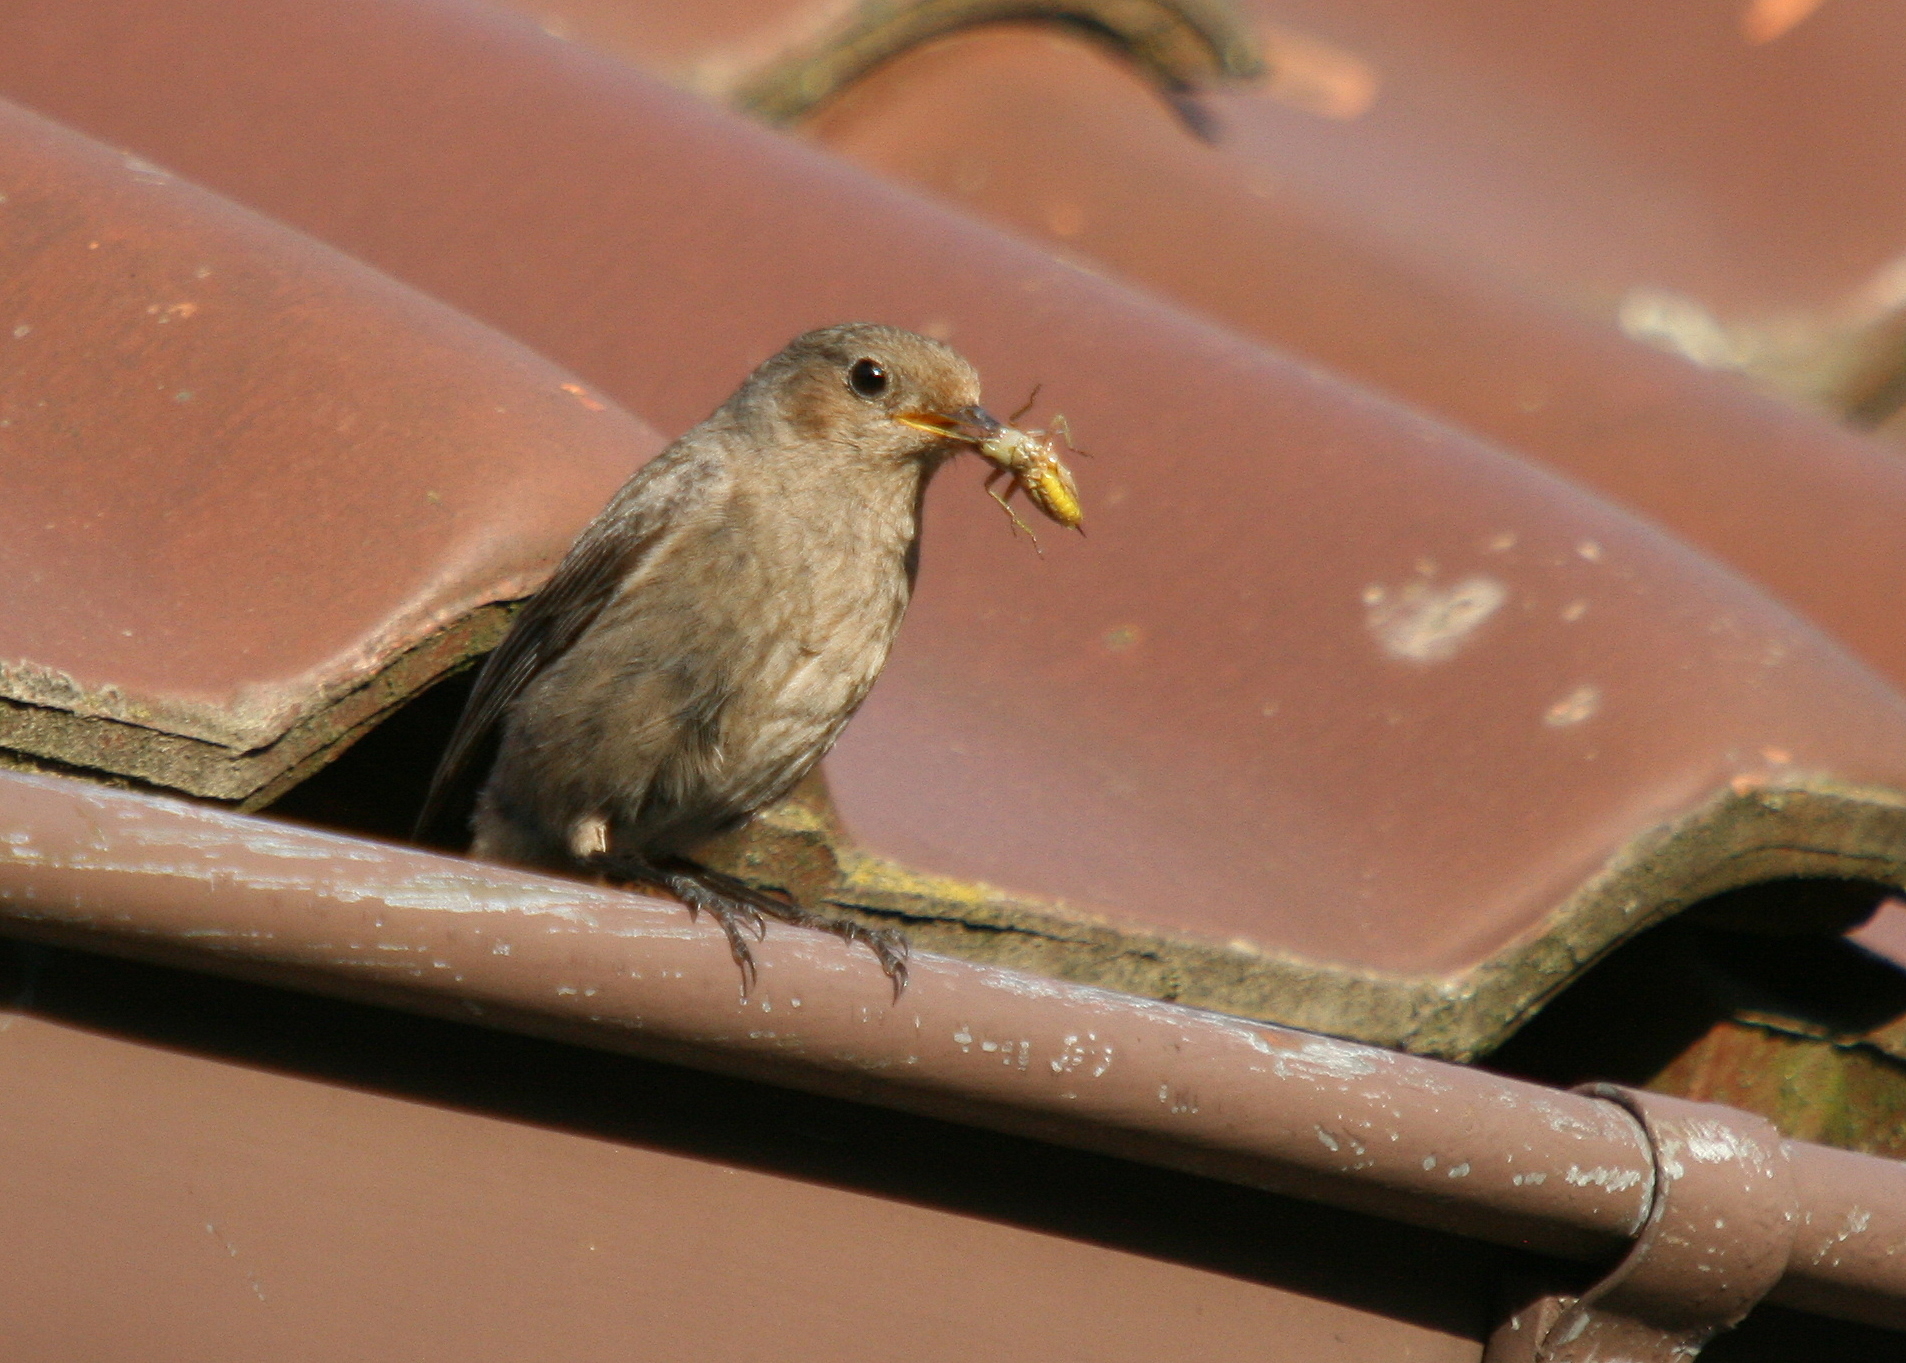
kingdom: Animalia
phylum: Chordata
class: Aves
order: Passeriformes
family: Muscicapidae
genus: Phoenicurus
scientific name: Phoenicurus ochruros
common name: Black redstart
